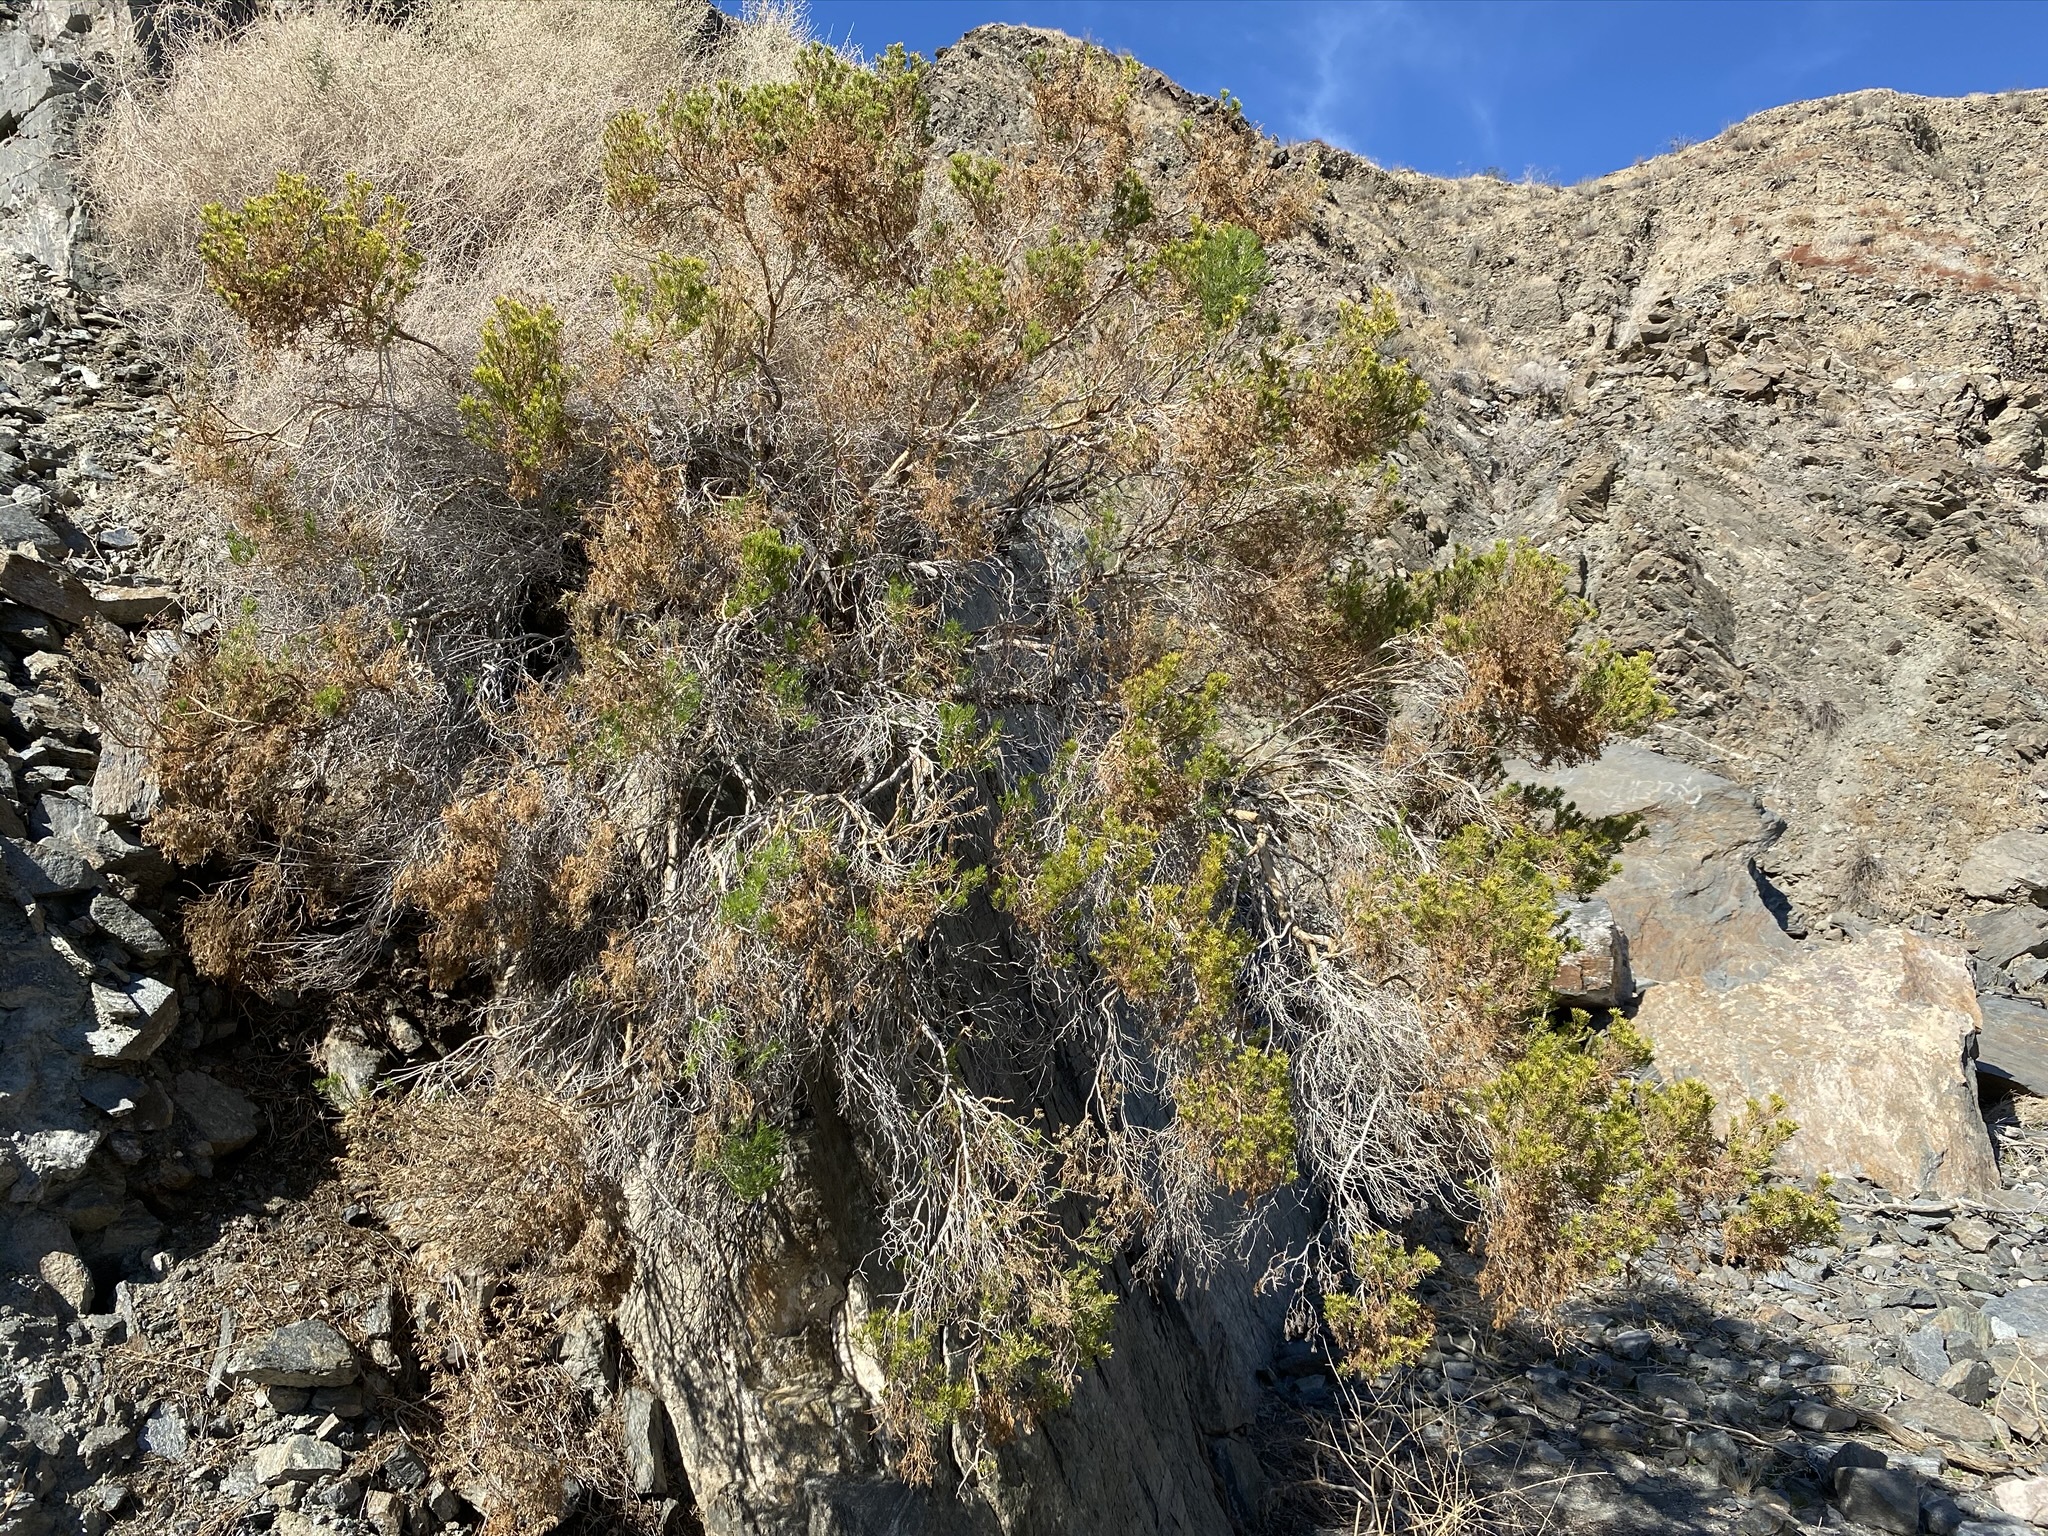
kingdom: Plantae
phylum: Tracheophyta
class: Magnoliopsida
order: Asterales
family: Asteraceae
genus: Peucephyllum
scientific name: Peucephyllum schottii
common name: Pygmy-cedar
